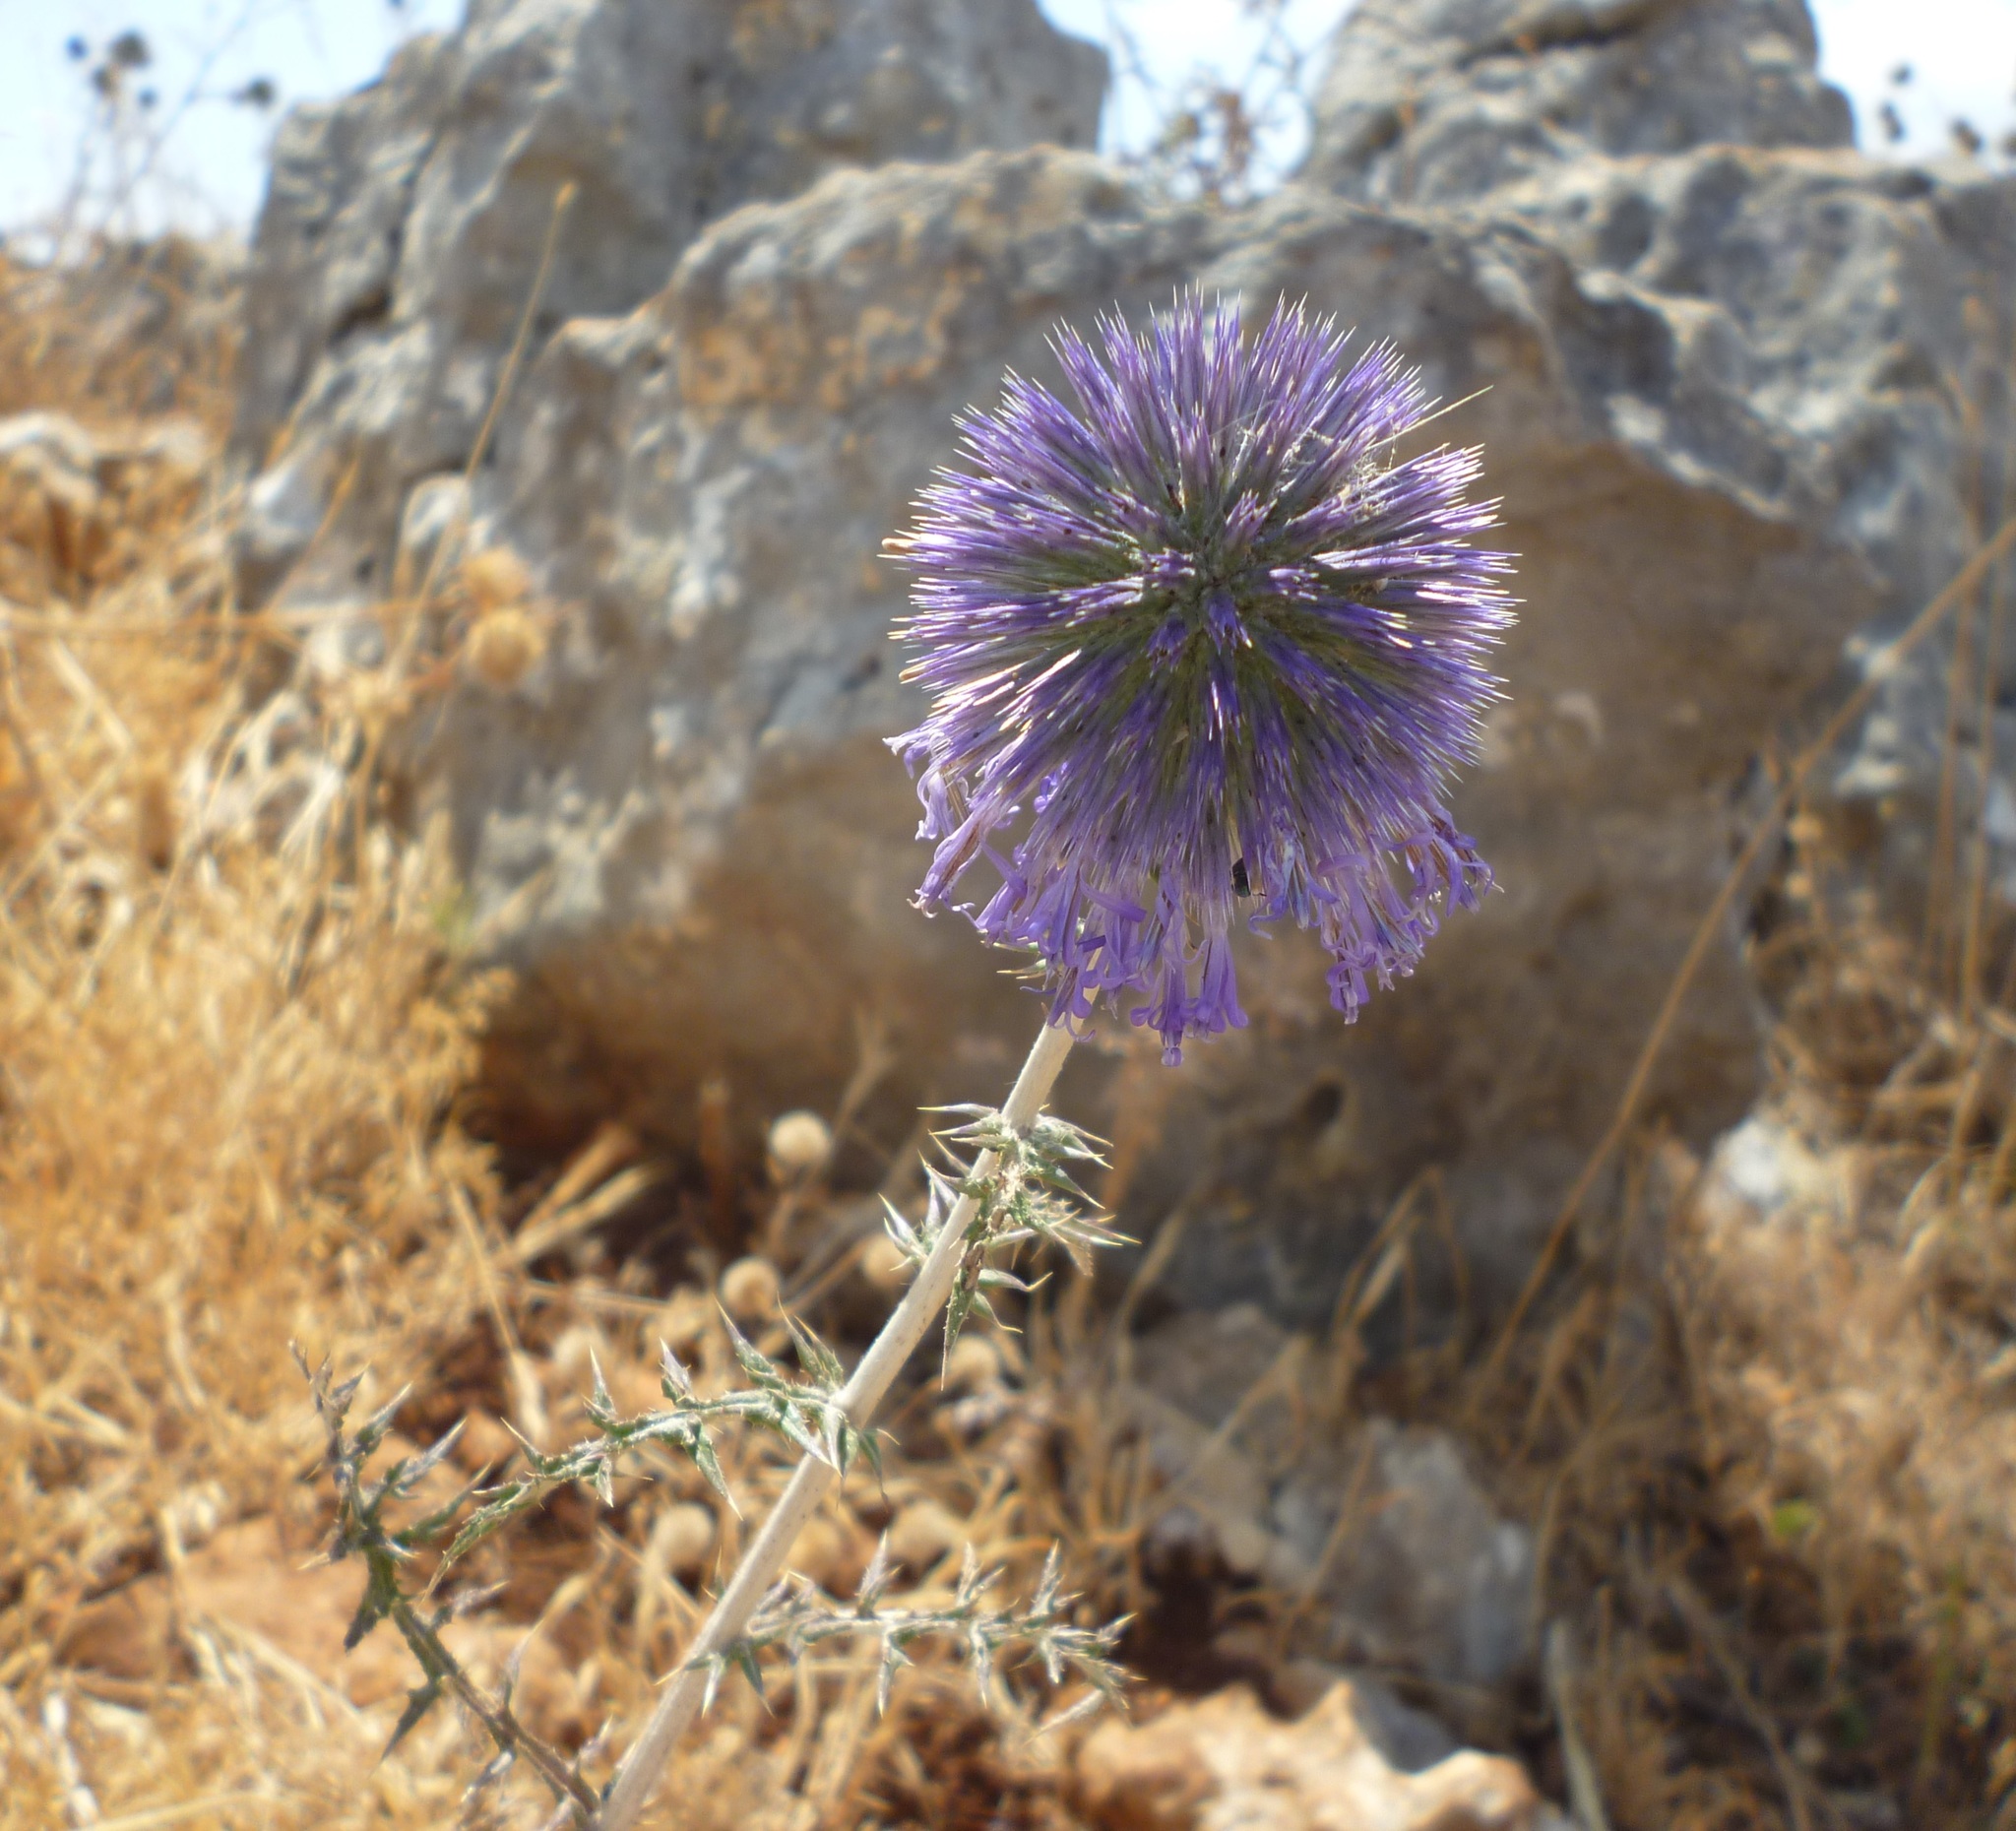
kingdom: Plantae
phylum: Tracheophyta
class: Magnoliopsida
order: Asterales
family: Asteraceae
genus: Echinops
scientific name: Echinops adenocaulos
